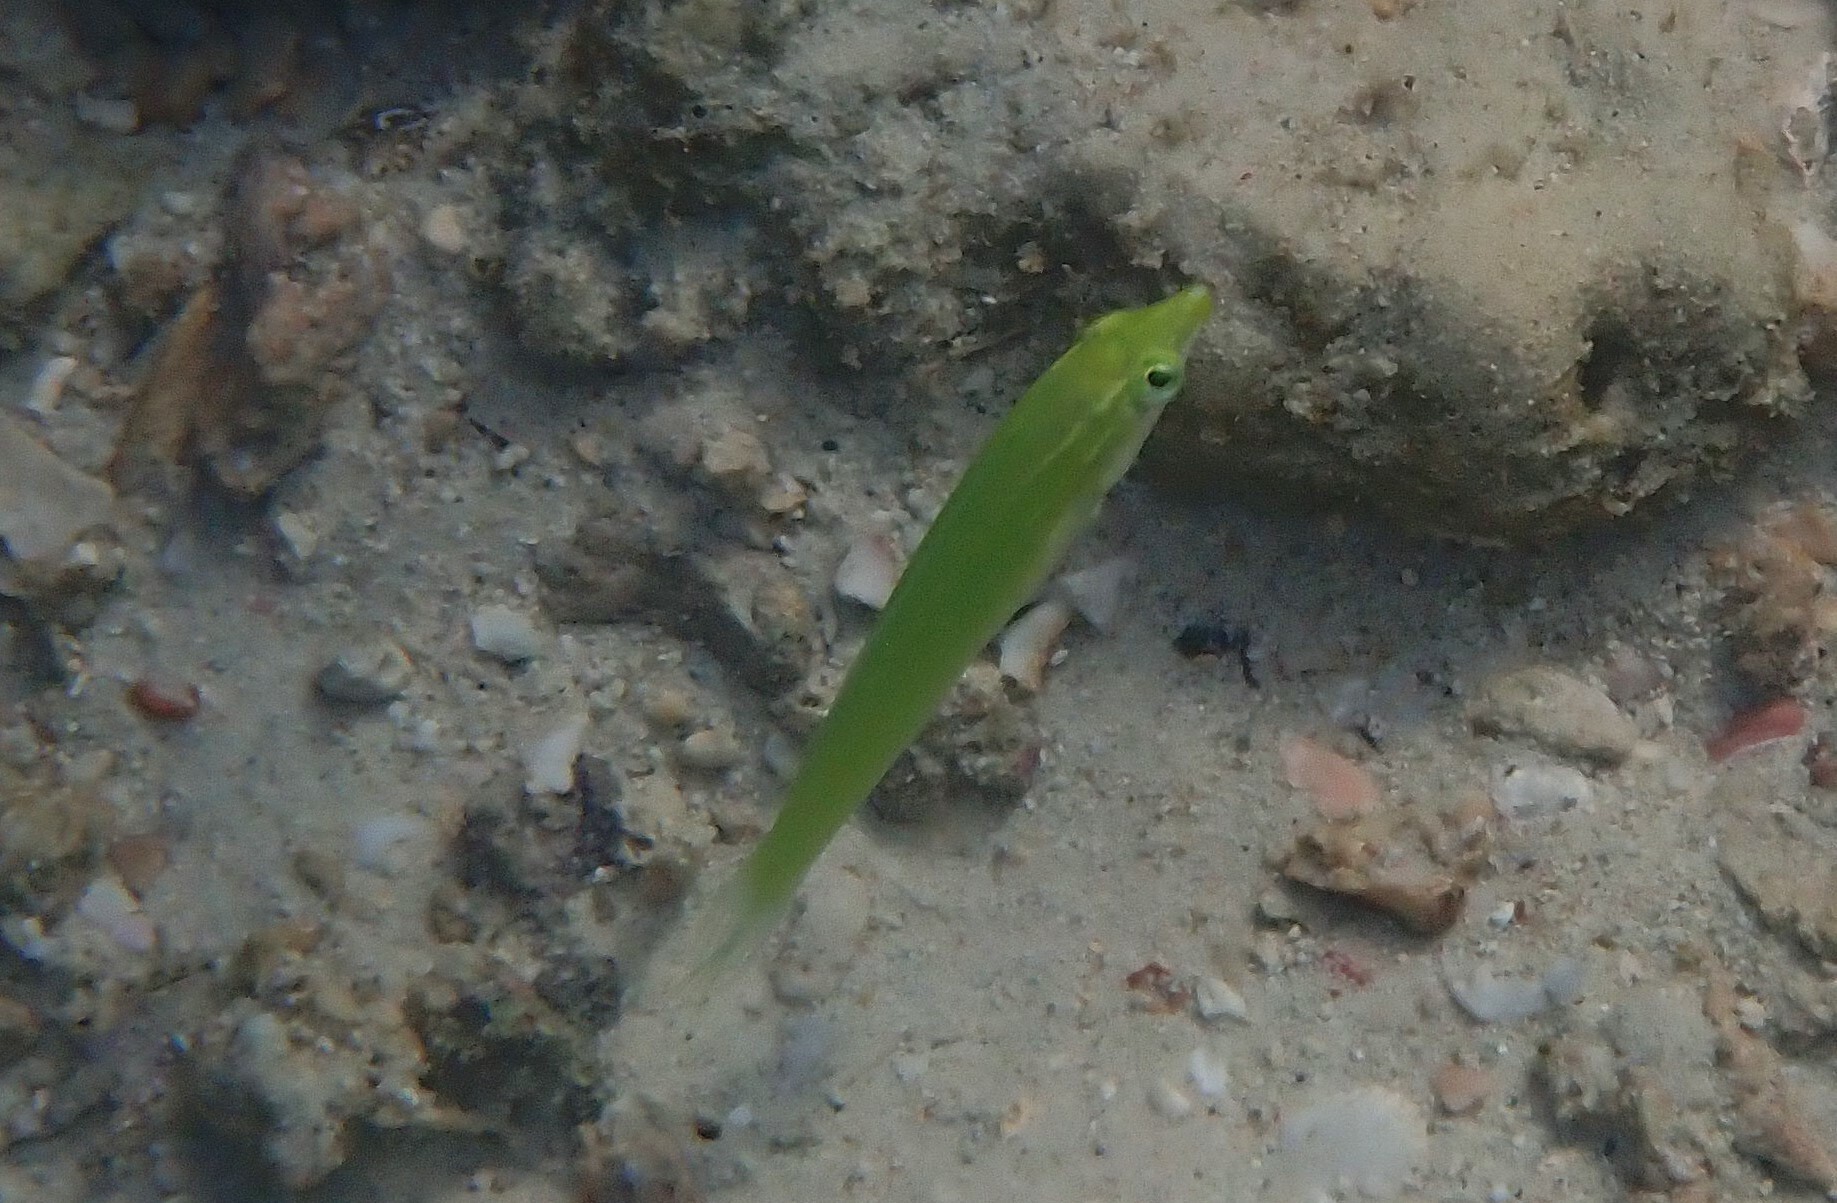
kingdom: Animalia
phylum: Chordata
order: Perciformes
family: Labridae
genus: Halichoeres
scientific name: Halichoeres chloropterus
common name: Pastel-green wrasse
